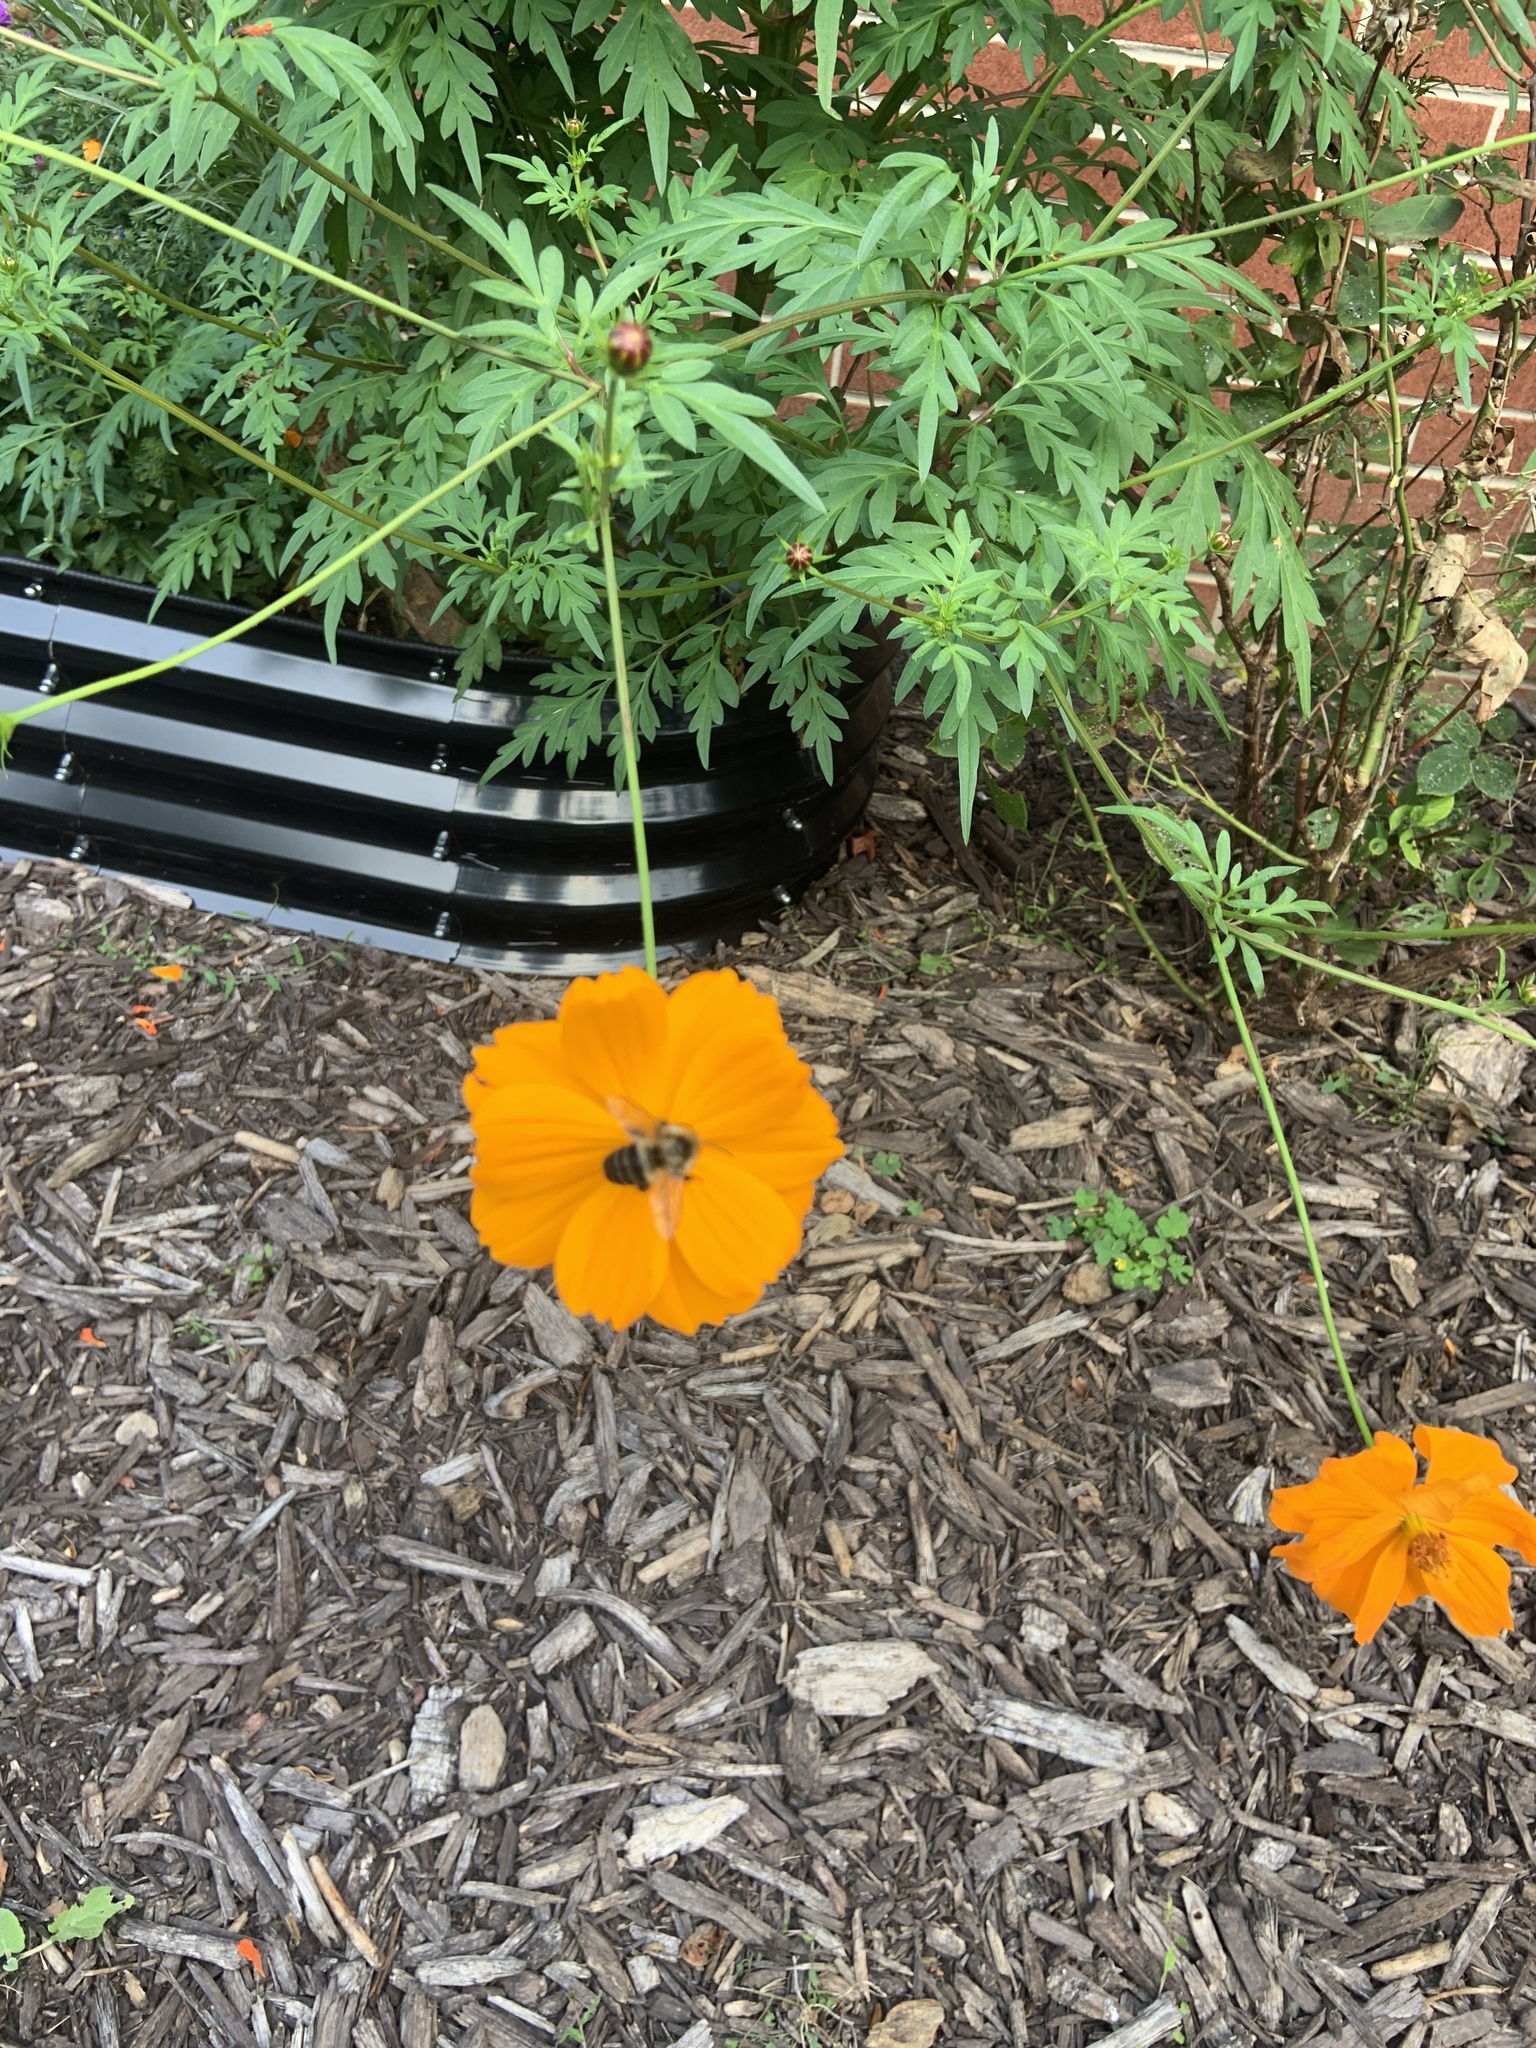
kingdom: Animalia
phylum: Arthropoda
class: Insecta
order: Hymenoptera
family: Apidae
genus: Bombus
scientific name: Bombus impatiens
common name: Common eastern bumble bee
